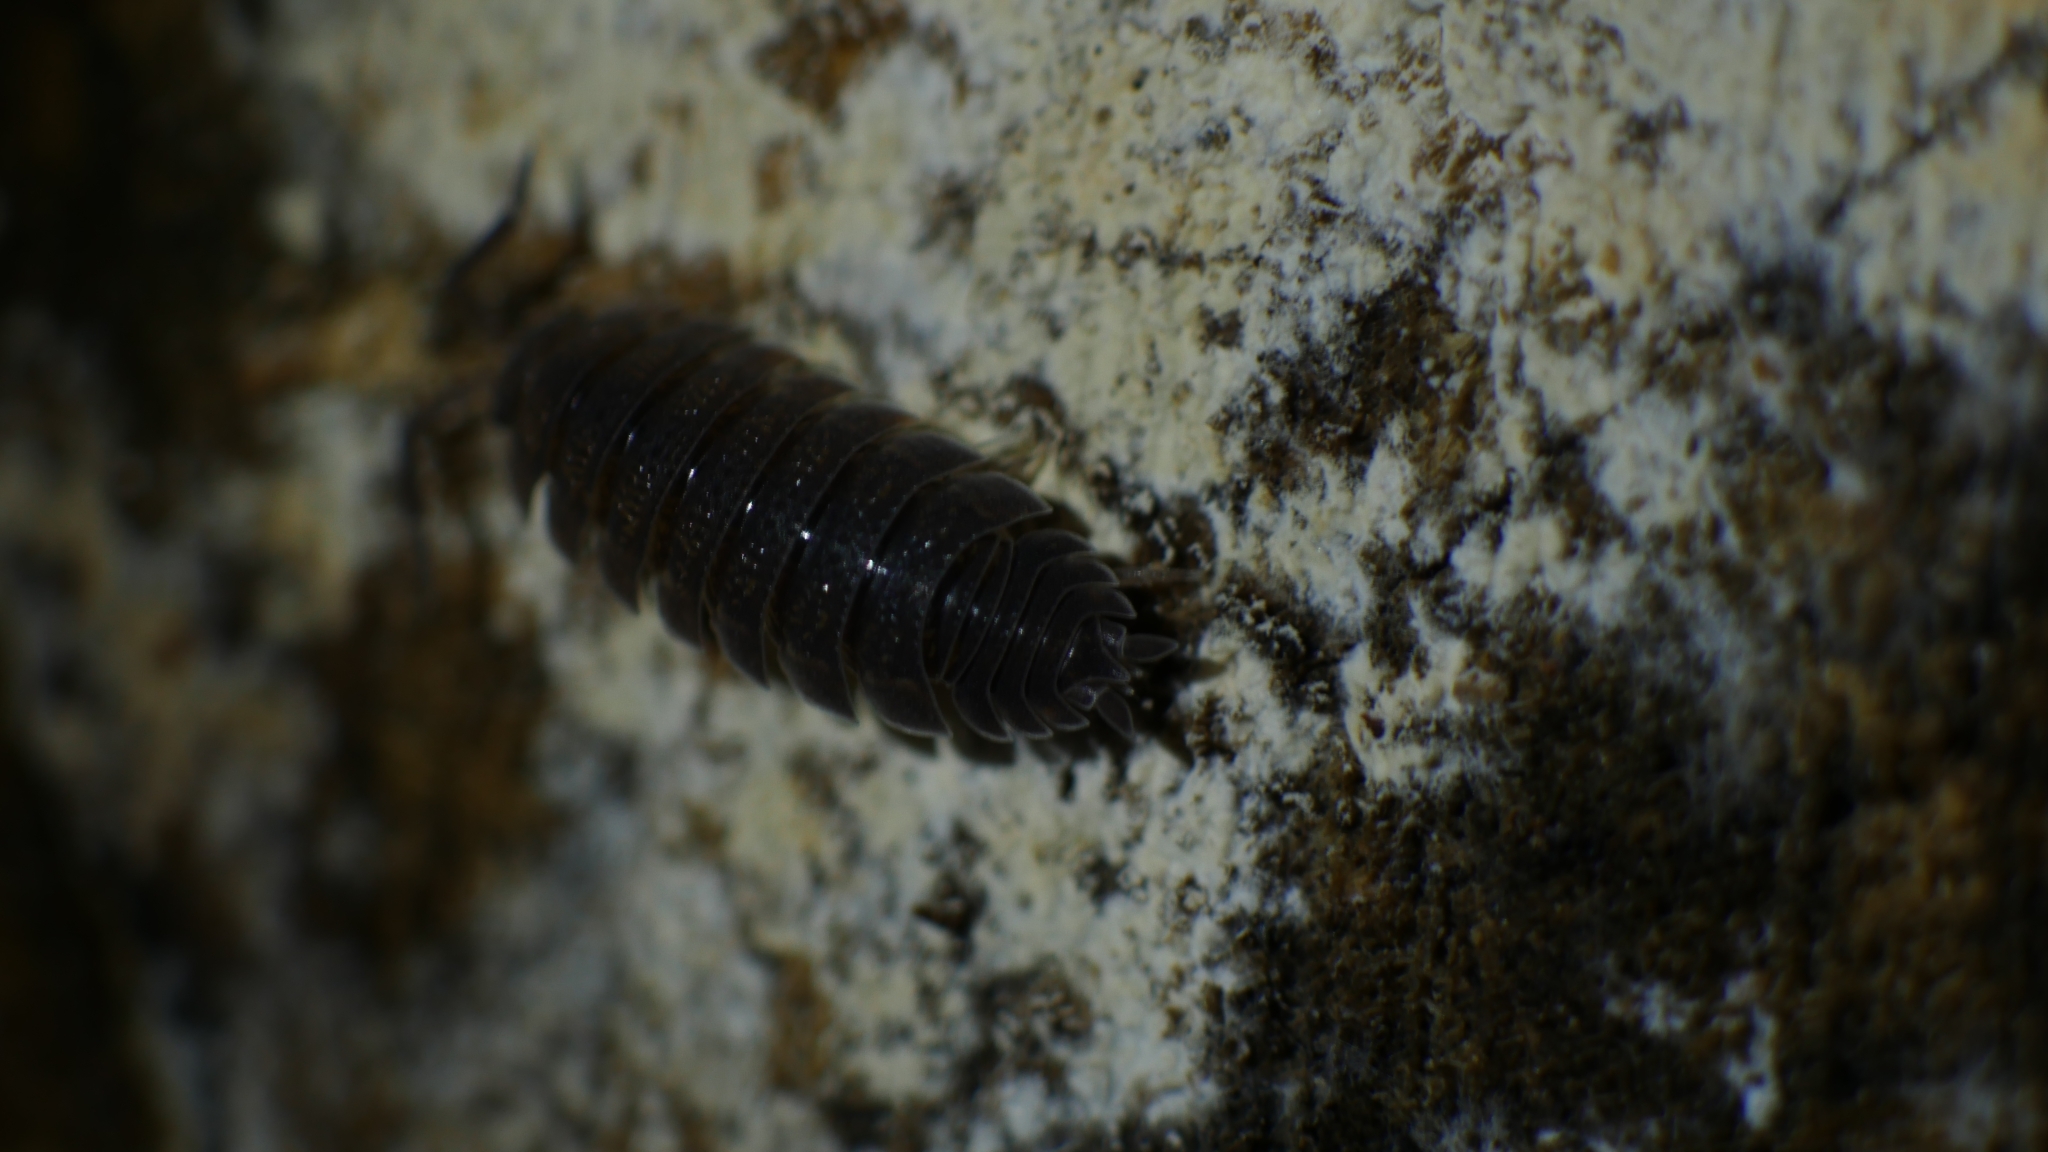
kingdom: Animalia
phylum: Arthropoda
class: Malacostraca
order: Isopoda
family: Porcellionidae
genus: Porcellio
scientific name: Porcellio scaber
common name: Common rough woodlouse
